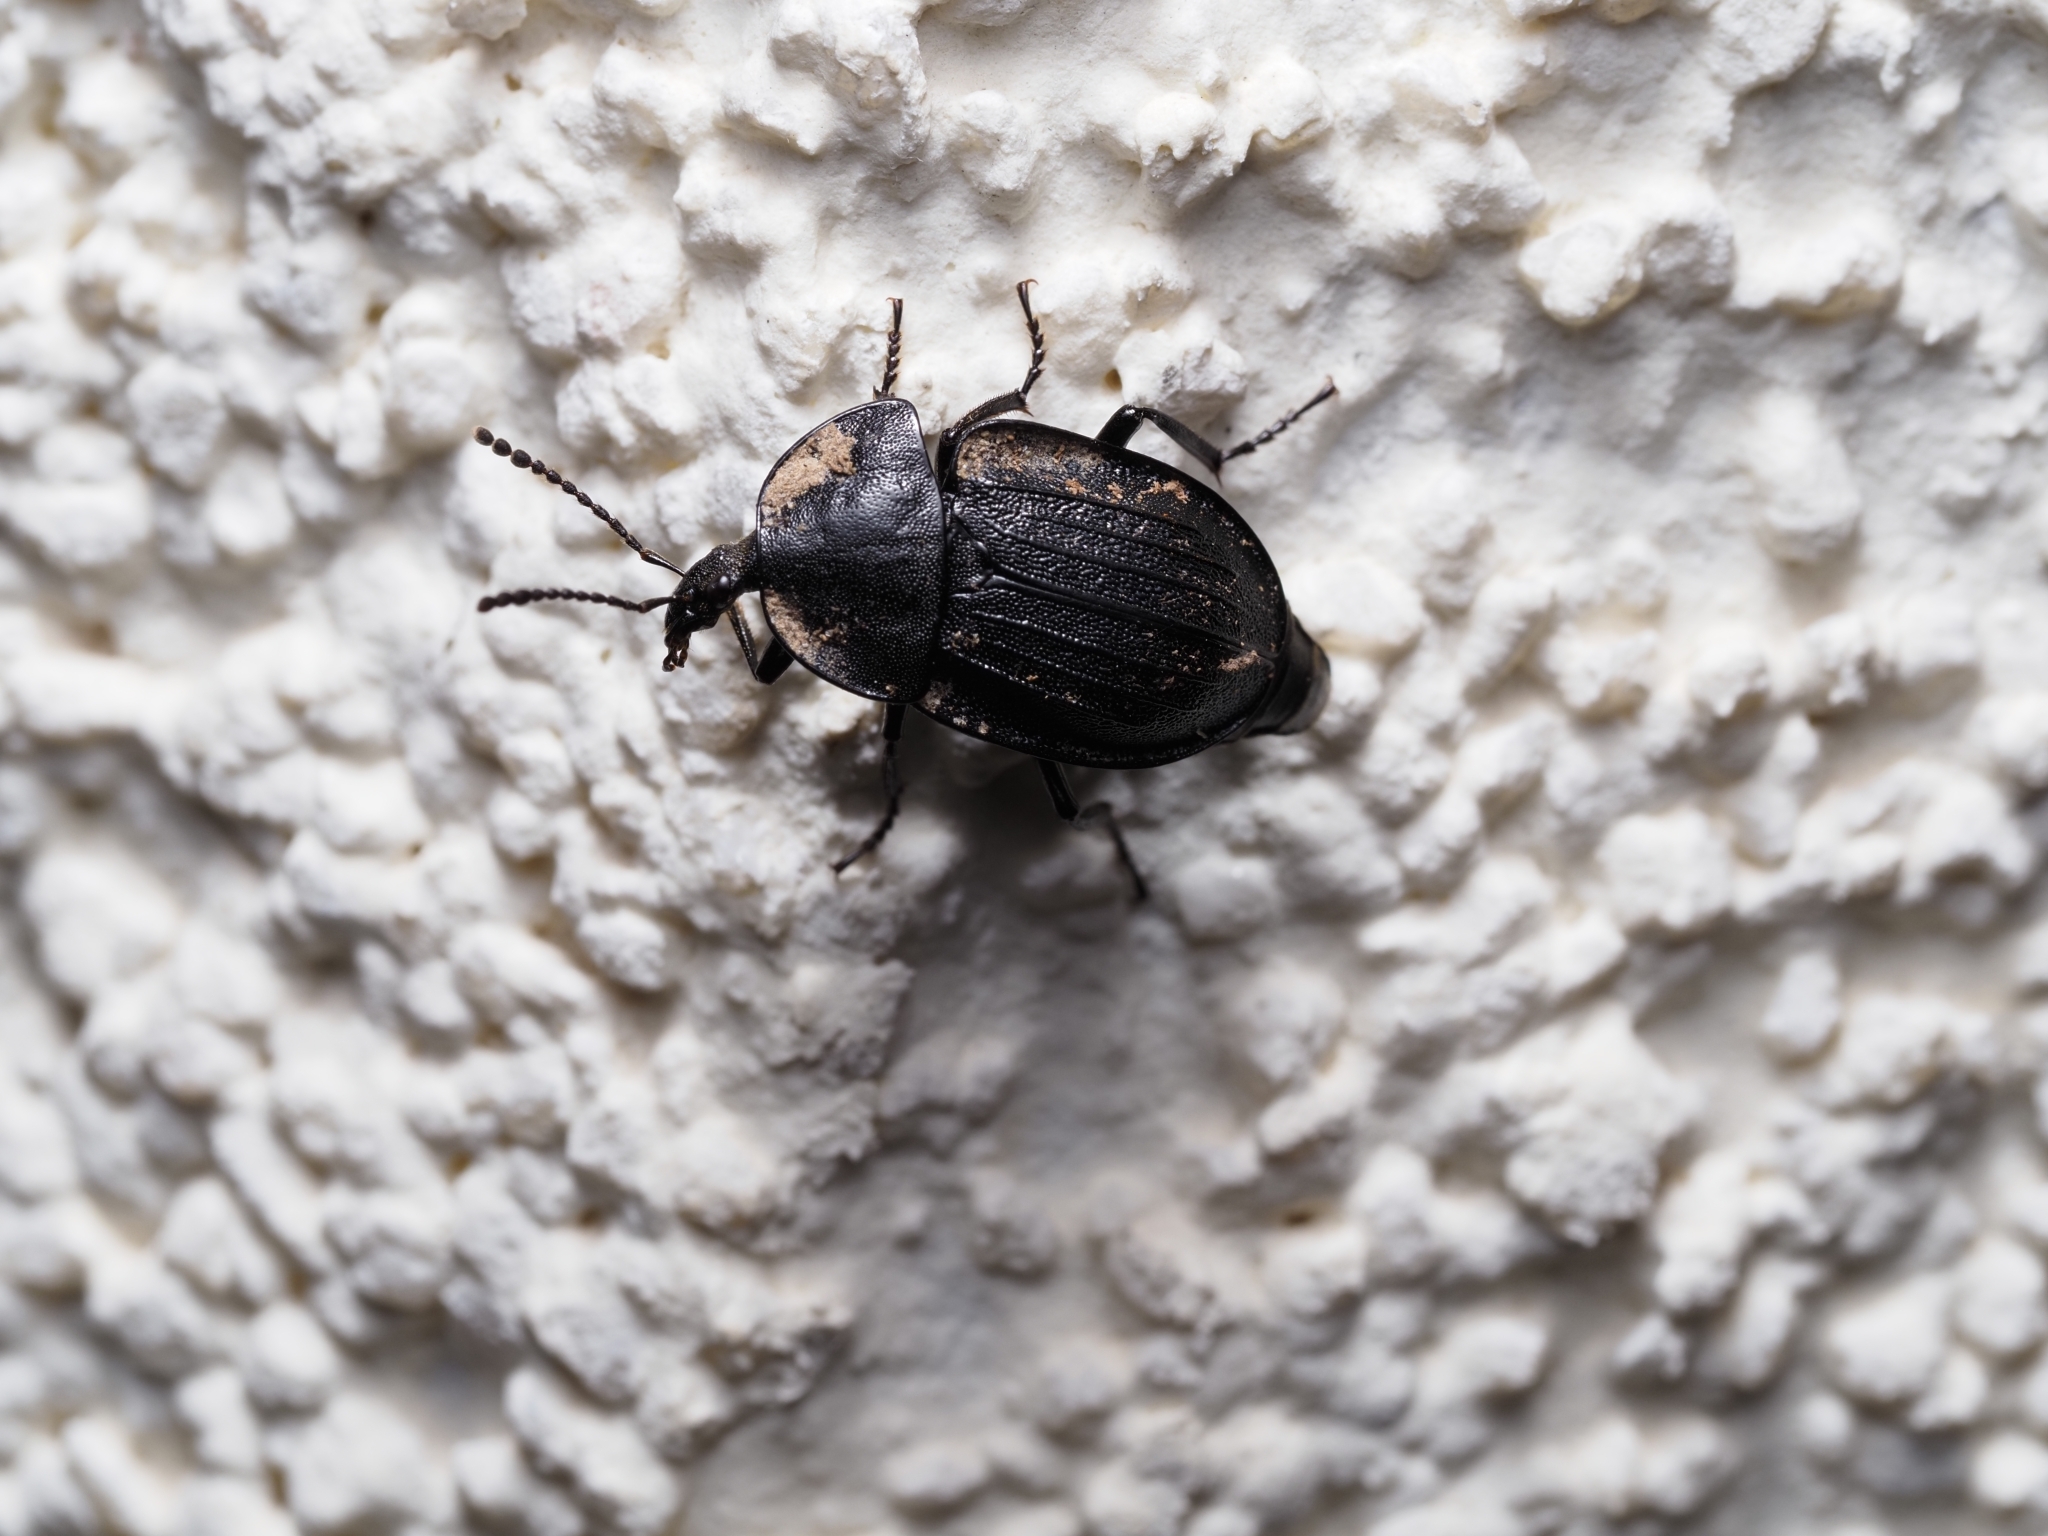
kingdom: Animalia
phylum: Arthropoda
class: Insecta
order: Coleoptera
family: Staphylinidae
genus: Silpha
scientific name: Silpha atrata
